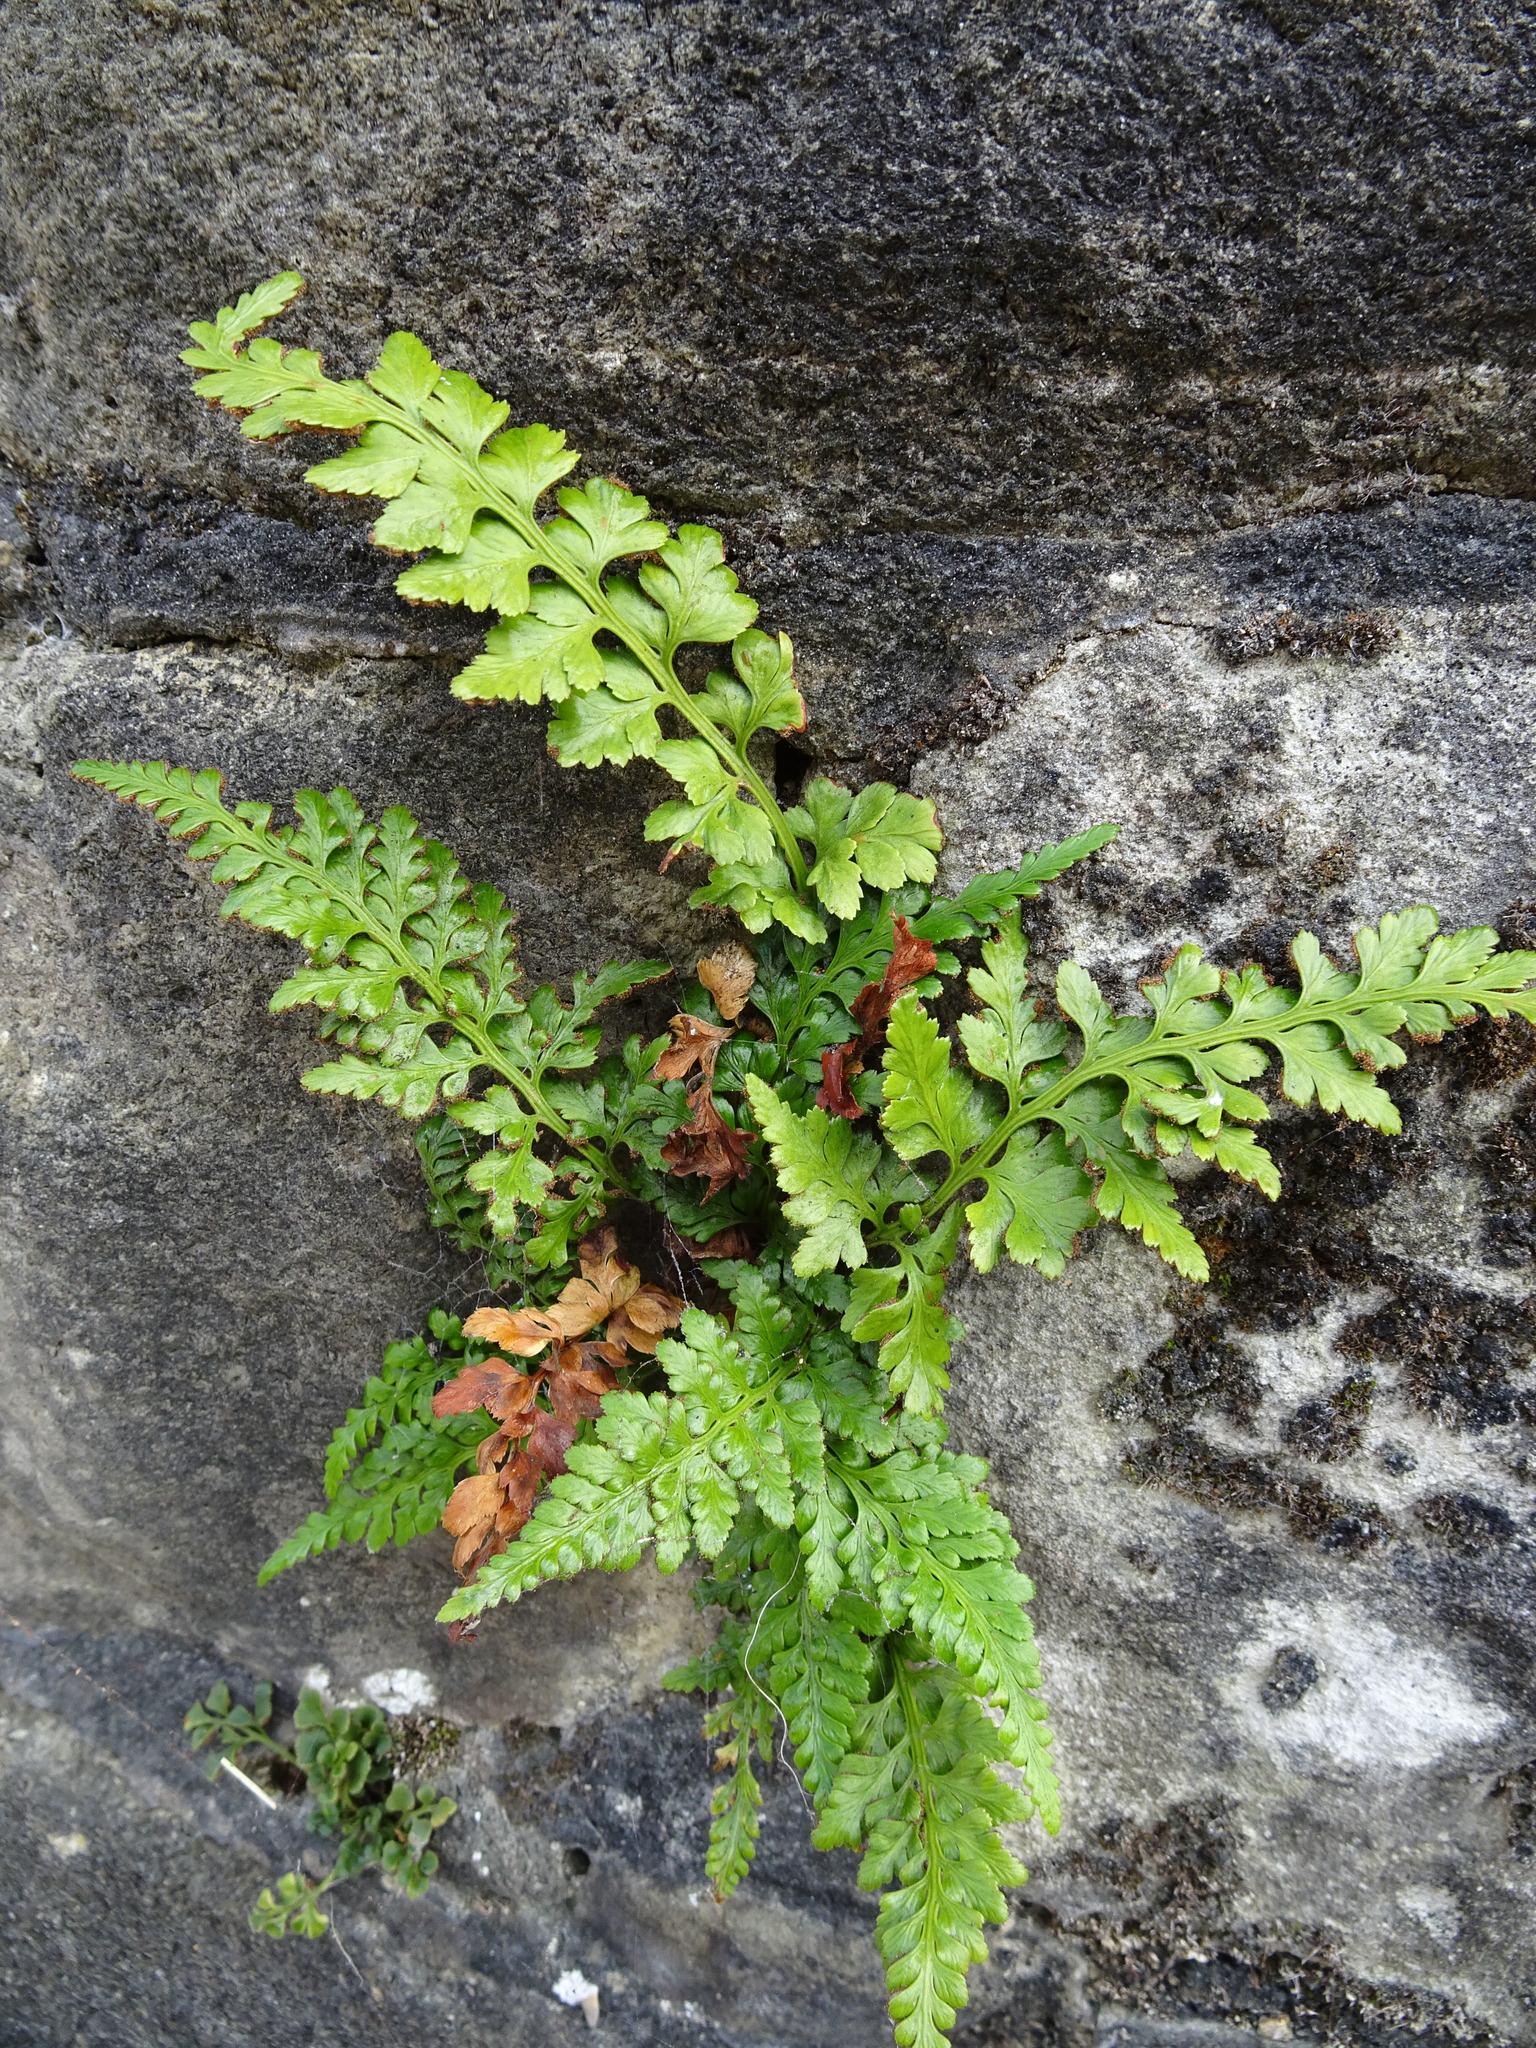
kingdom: Plantae
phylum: Tracheophyta
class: Polypodiopsida
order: Polypodiales
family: Aspleniaceae
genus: Asplenium
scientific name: Asplenium adiantum-nigrum
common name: Black spleenwort
